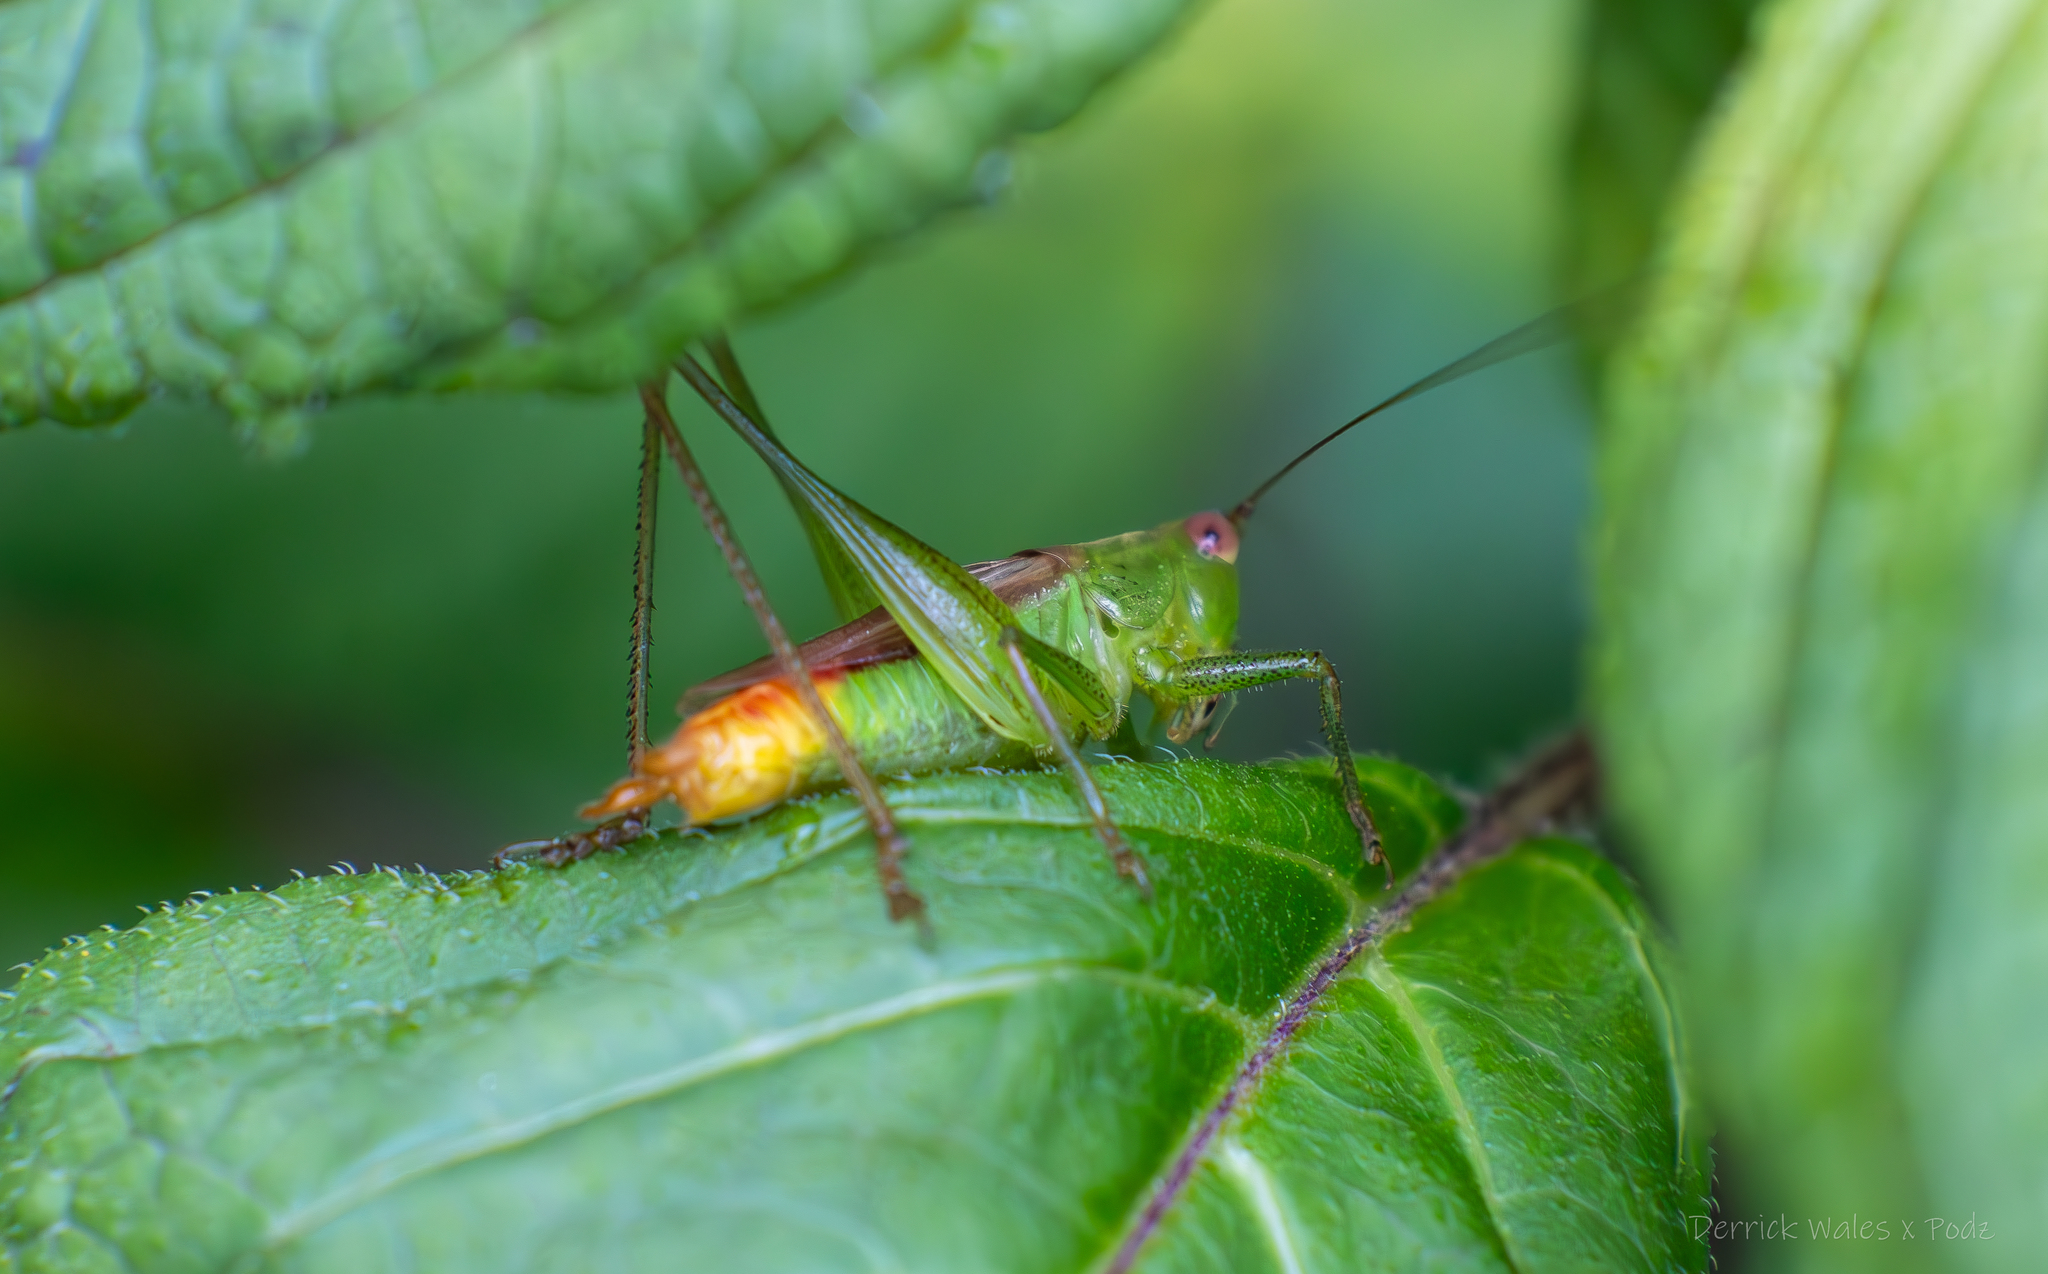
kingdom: Animalia
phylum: Arthropoda
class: Insecta
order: Orthoptera
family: Tettigoniidae
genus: Conocephalus
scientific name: Conocephalus brevipennis
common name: Short-winged meadow katydid
